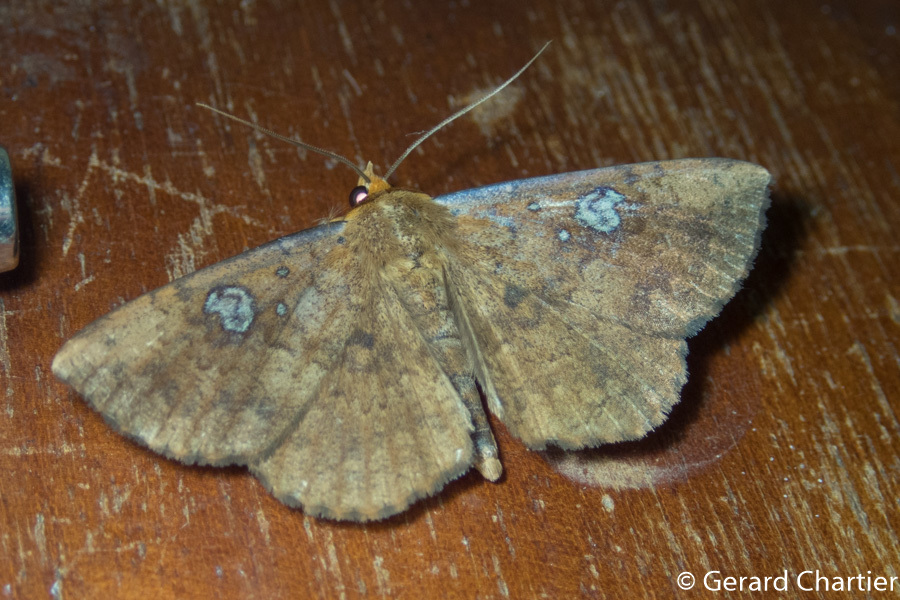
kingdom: Animalia
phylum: Arthropoda
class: Insecta
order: Lepidoptera
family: Erebidae
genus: Talariga
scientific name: Talariga capacior
